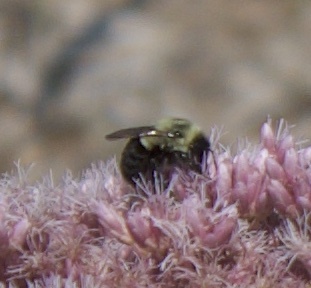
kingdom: Animalia
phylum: Arthropoda
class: Insecta
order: Hymenoptera
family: Apidae
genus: Bombus
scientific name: Bombus impatiens
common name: Common eastern bumble bee
